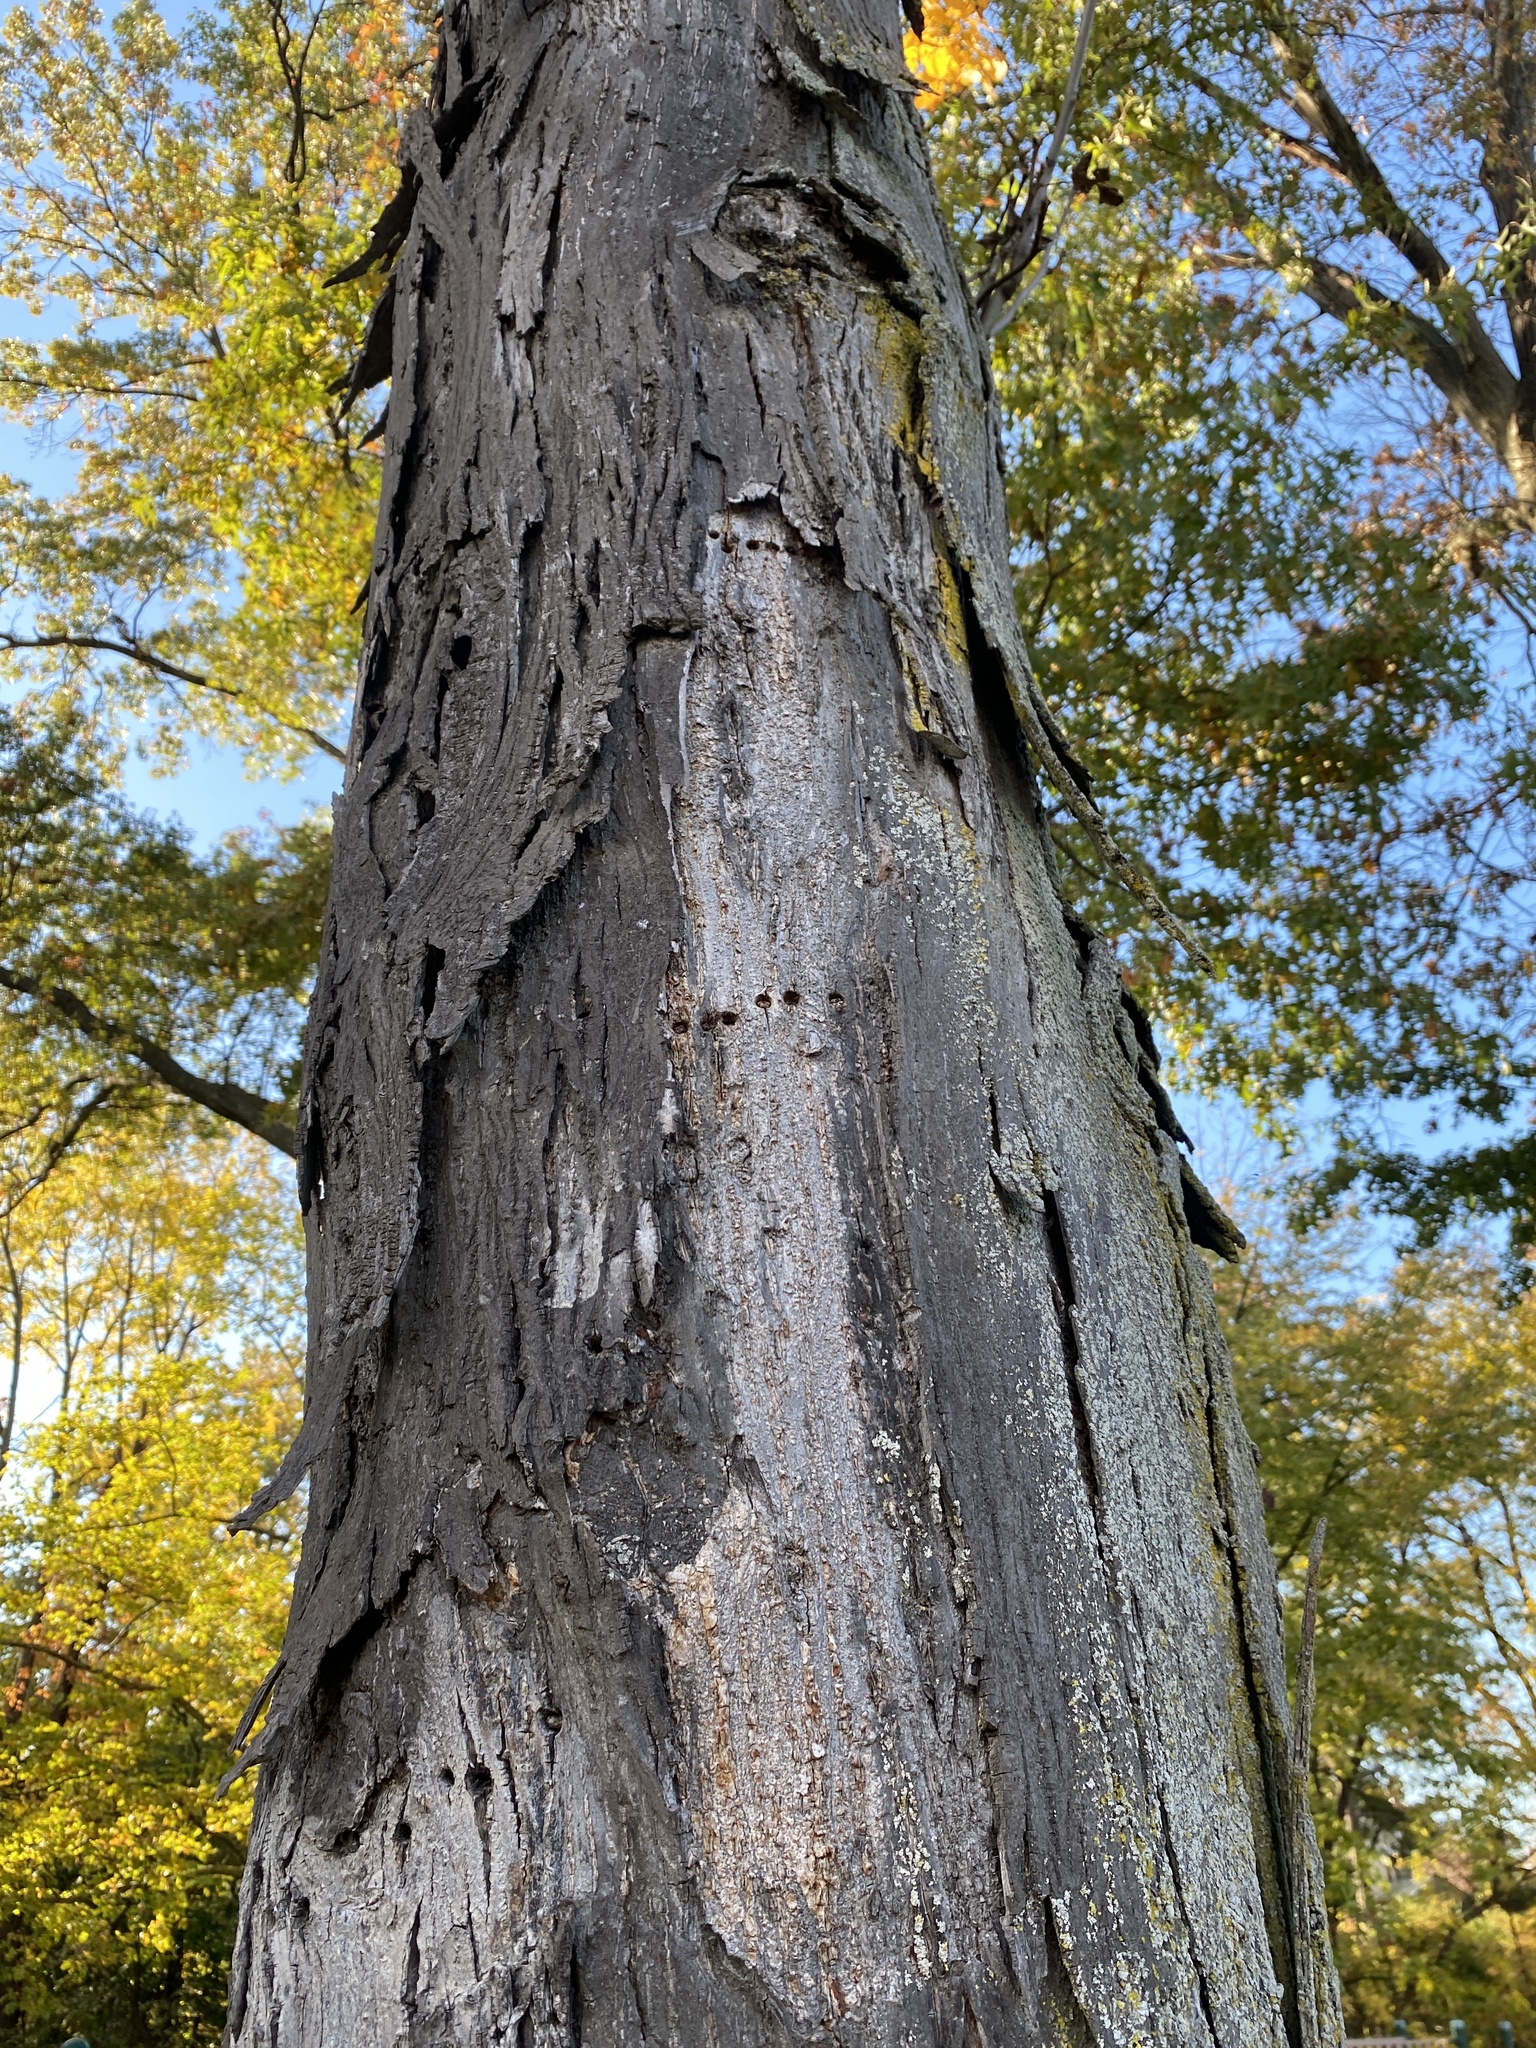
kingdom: Animalia
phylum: Chordata
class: Aves
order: Piciformes
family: Picidae
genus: Sphyrapicus
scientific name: Sphyrapicus varius
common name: Yellow-bellied sapsucker
